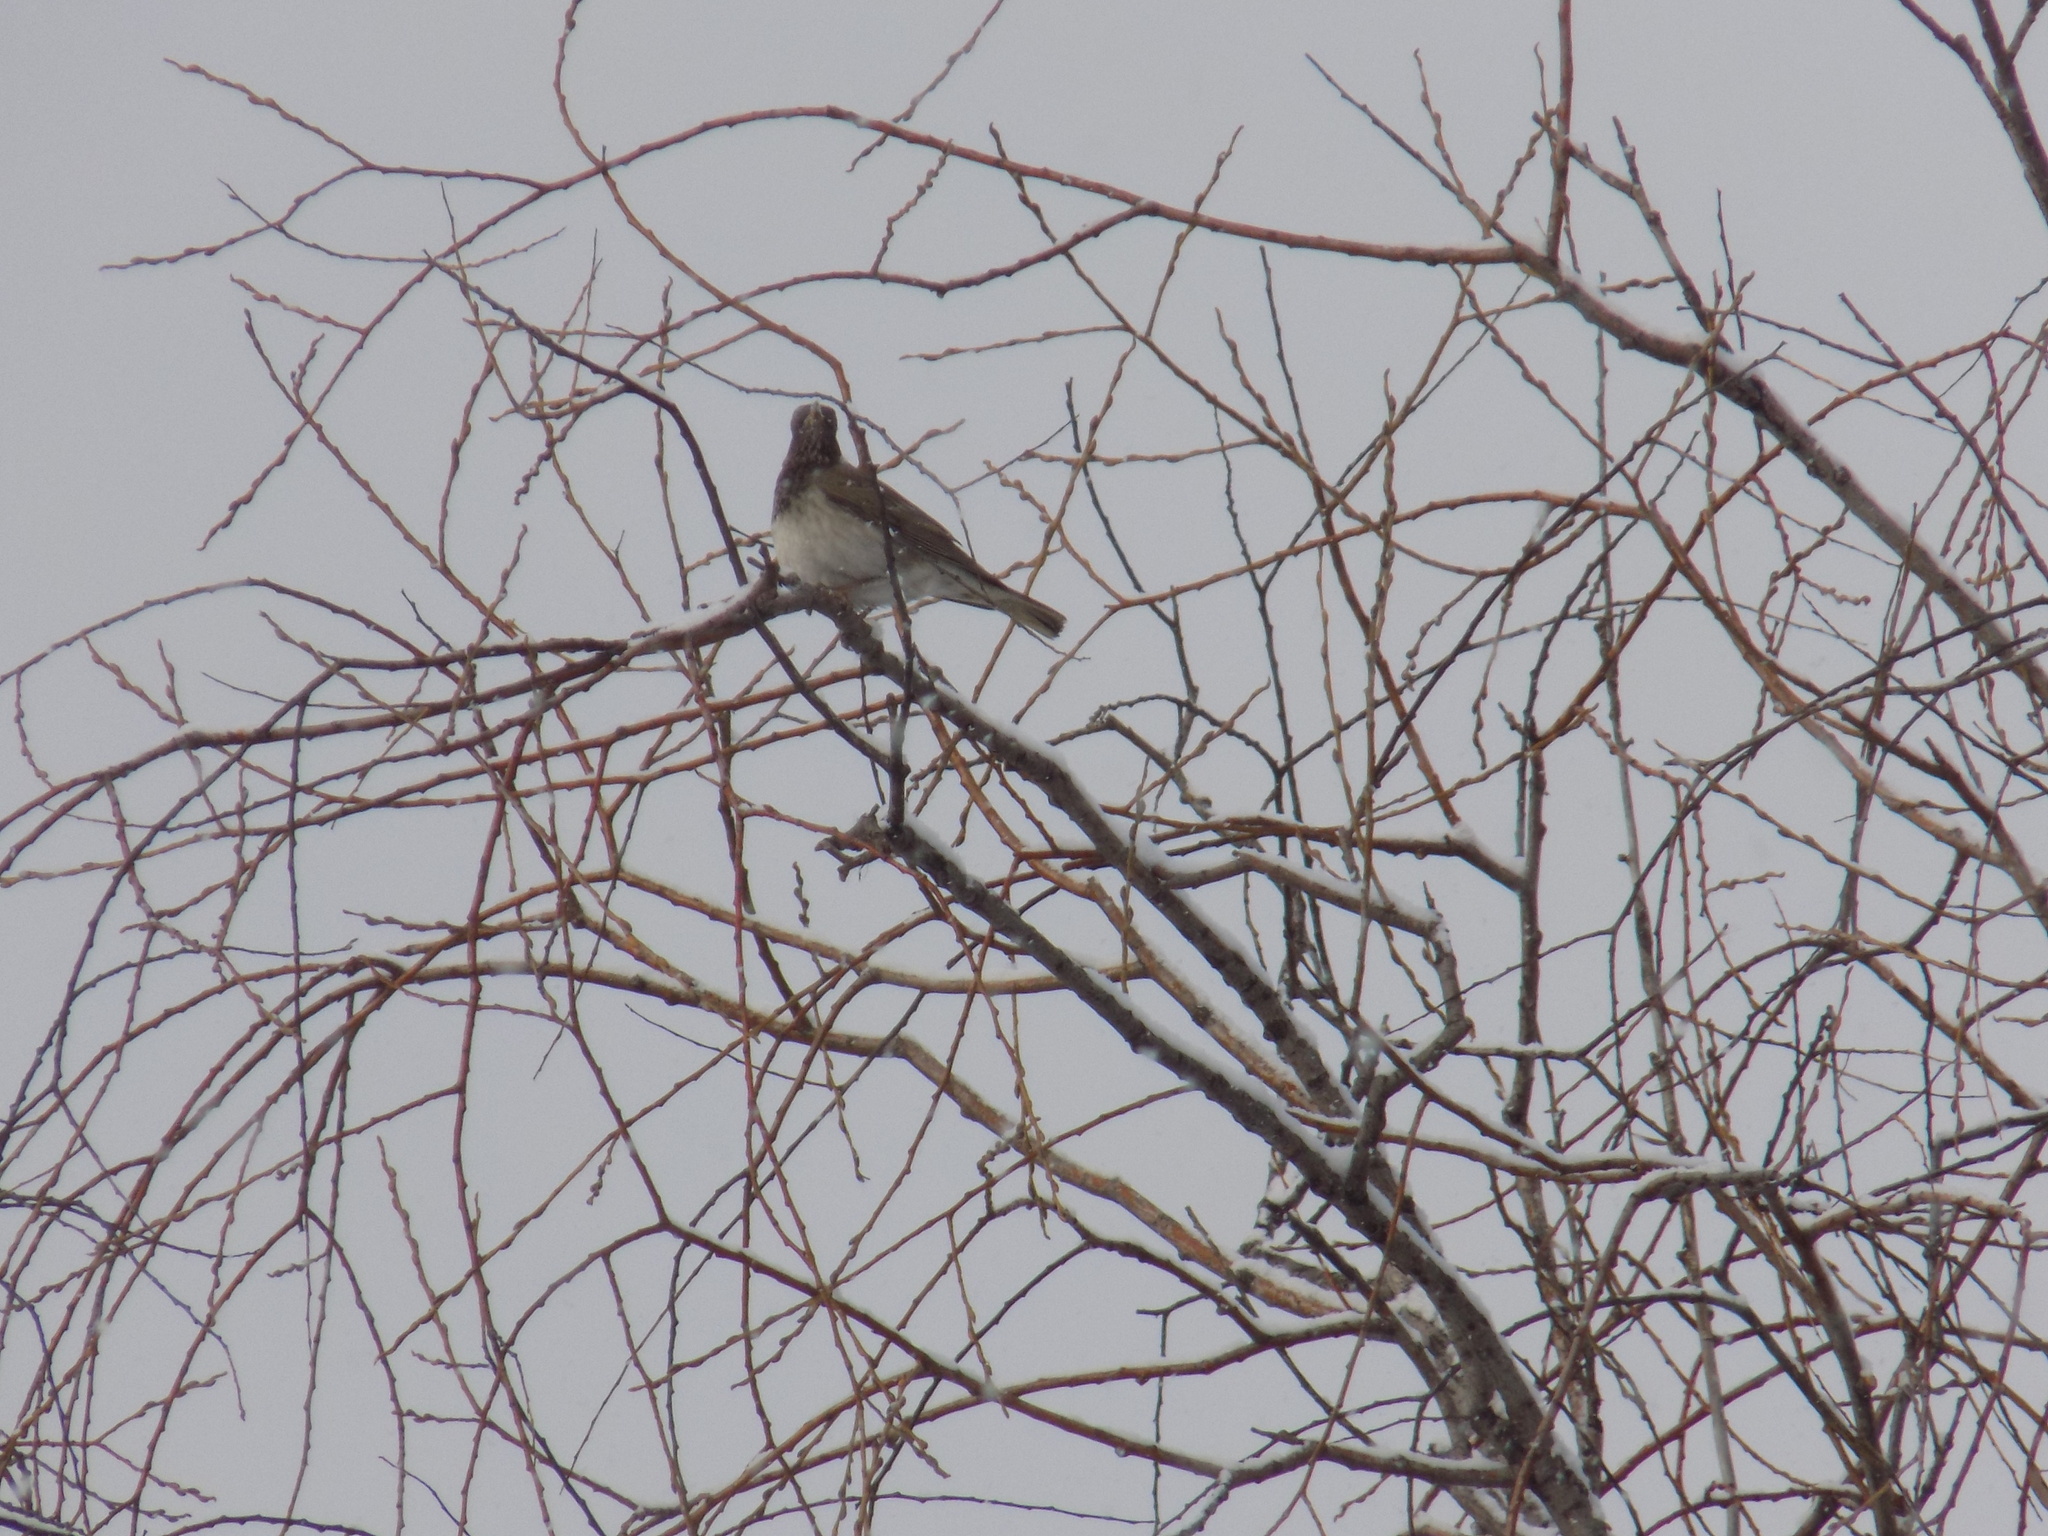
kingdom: Animalia
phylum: Chordata
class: Aves
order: Passeriformes
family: Turdidae
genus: Turdus
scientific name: Turdus atrogularis
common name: Black-throated thrush
